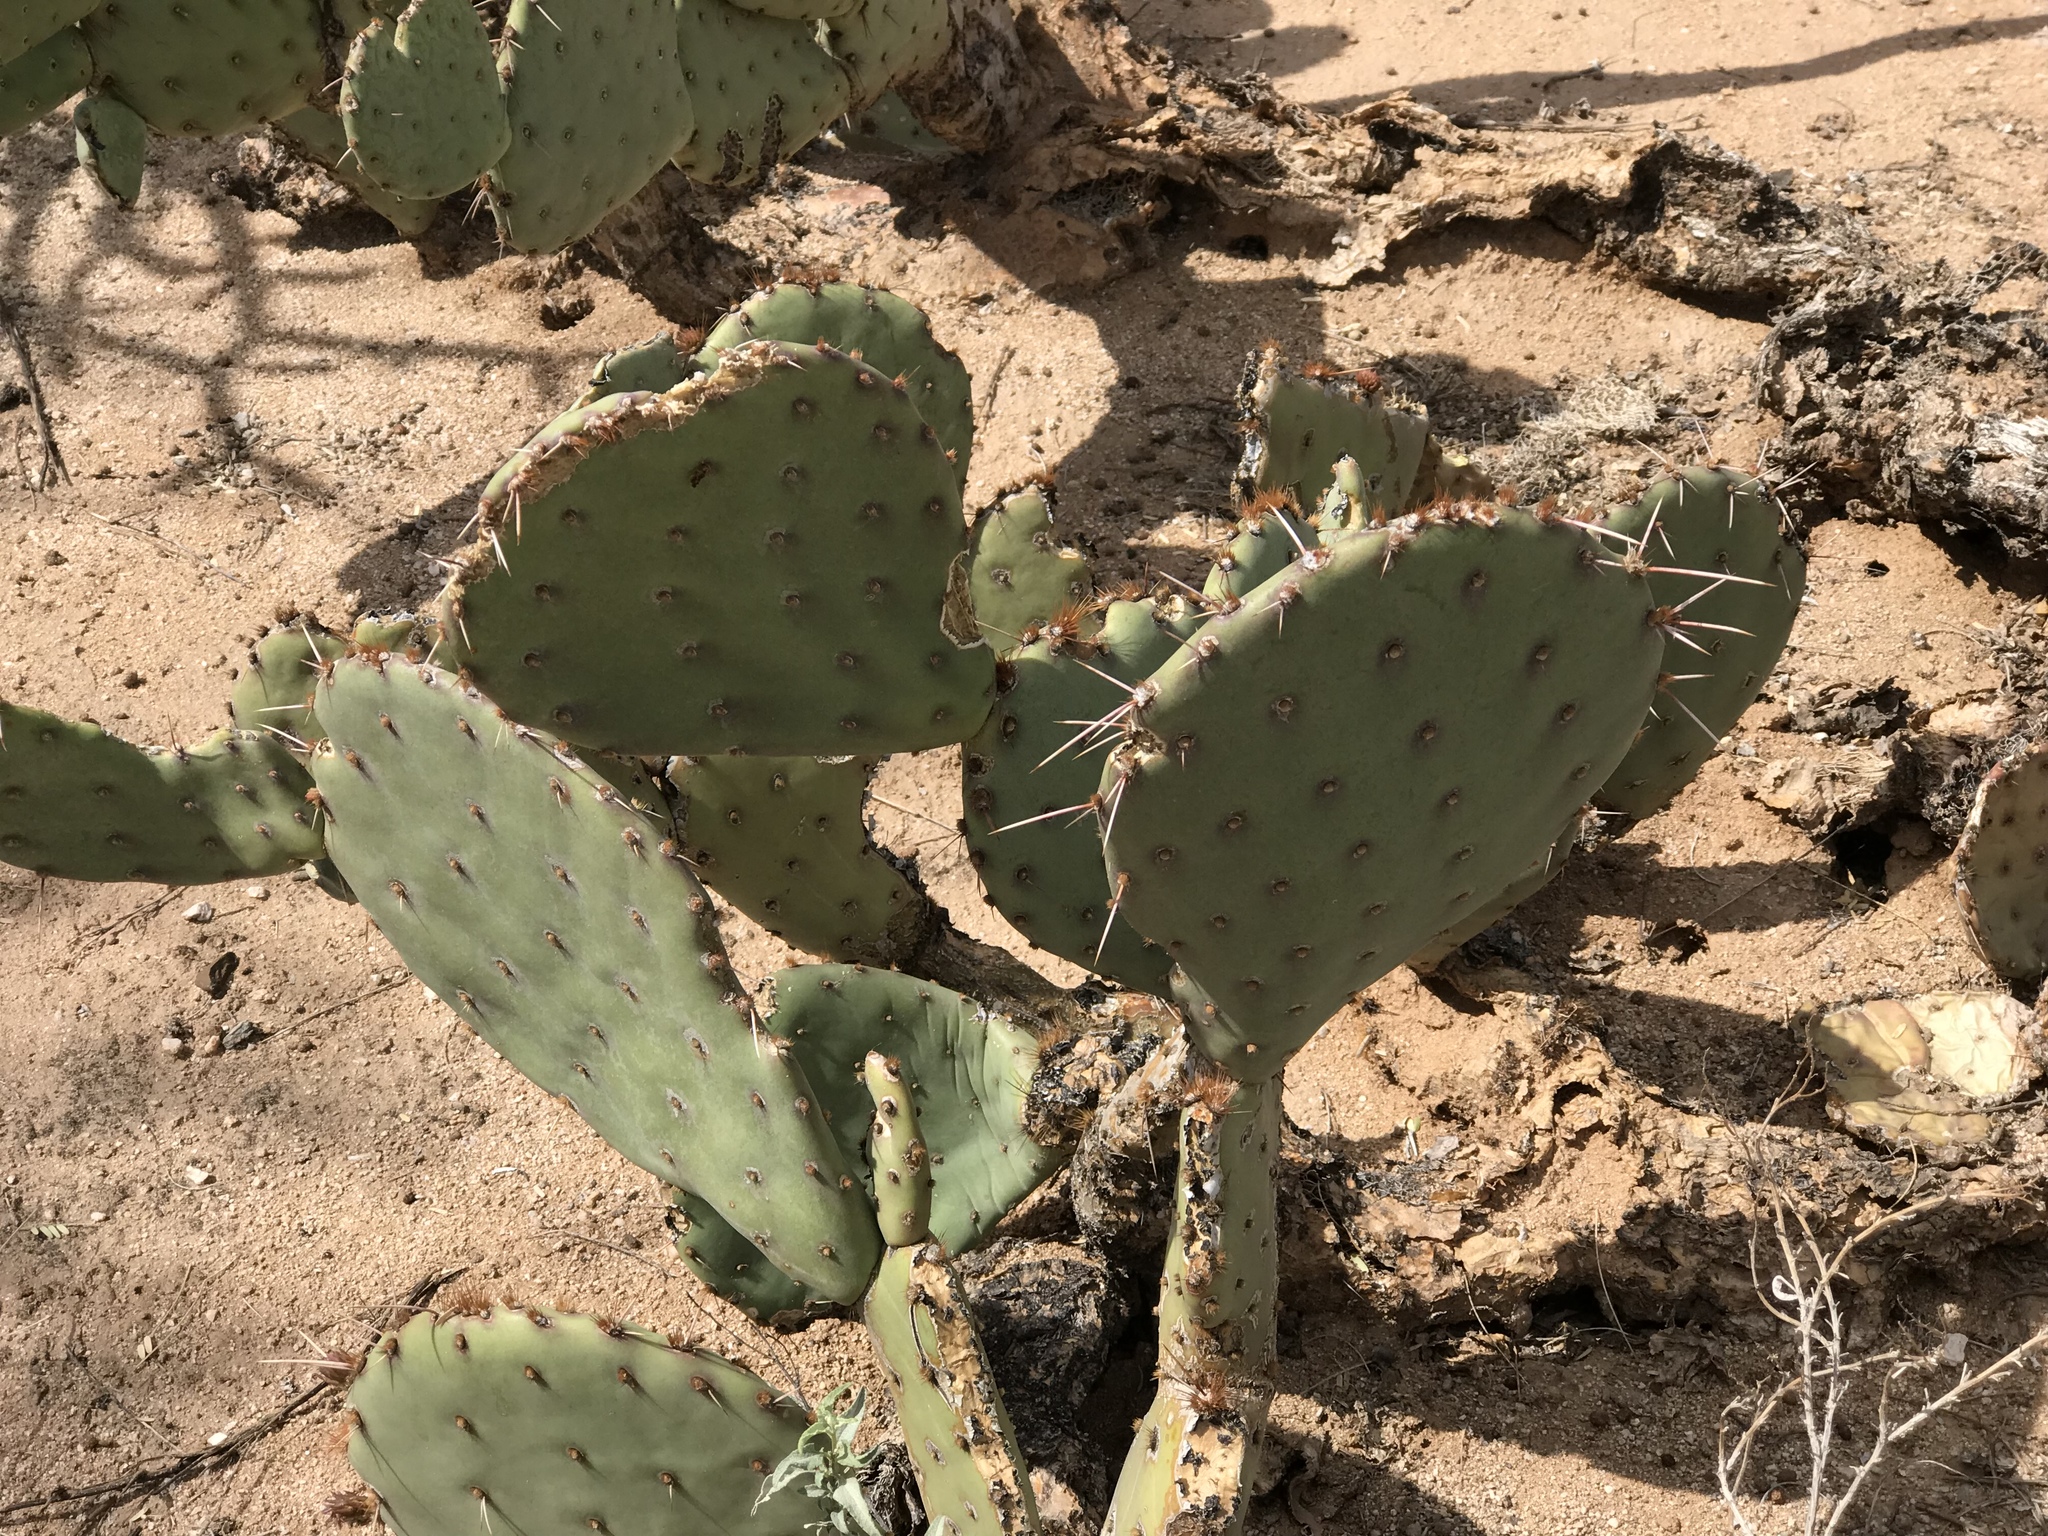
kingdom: Plantae
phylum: Tracheophyta
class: Magnoliopsida
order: Caryophyllales
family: Cactaceae
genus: Opuntia
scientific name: Opuntia chlorotica
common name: Dollar-joint prickly-pear
